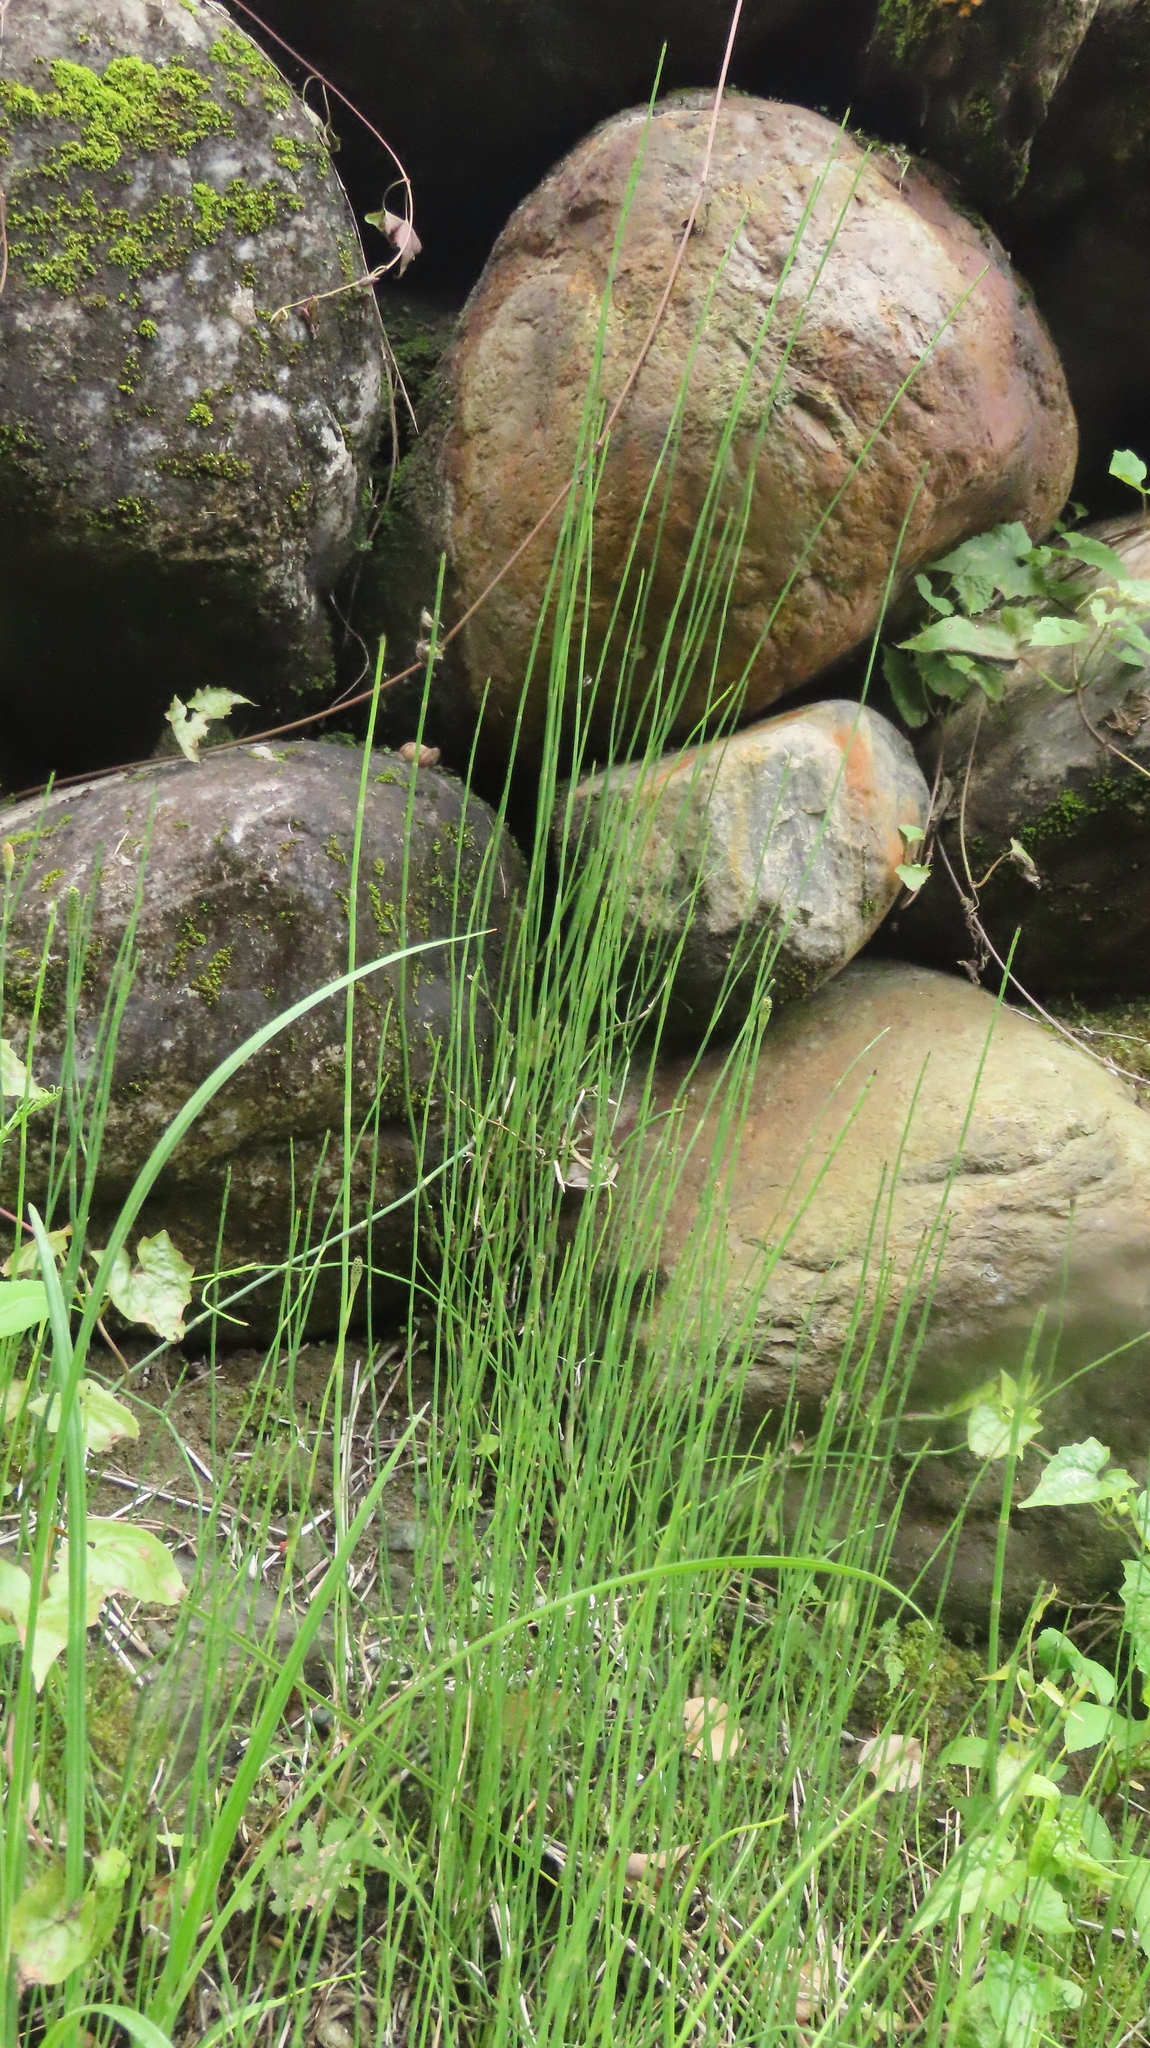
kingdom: Plantae
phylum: Tracheophyta
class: Polypodiopsida
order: Equisetales
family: Equisetaceae
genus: Equisetum
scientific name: Equisetum ramosissimum
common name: Branched horsetail
